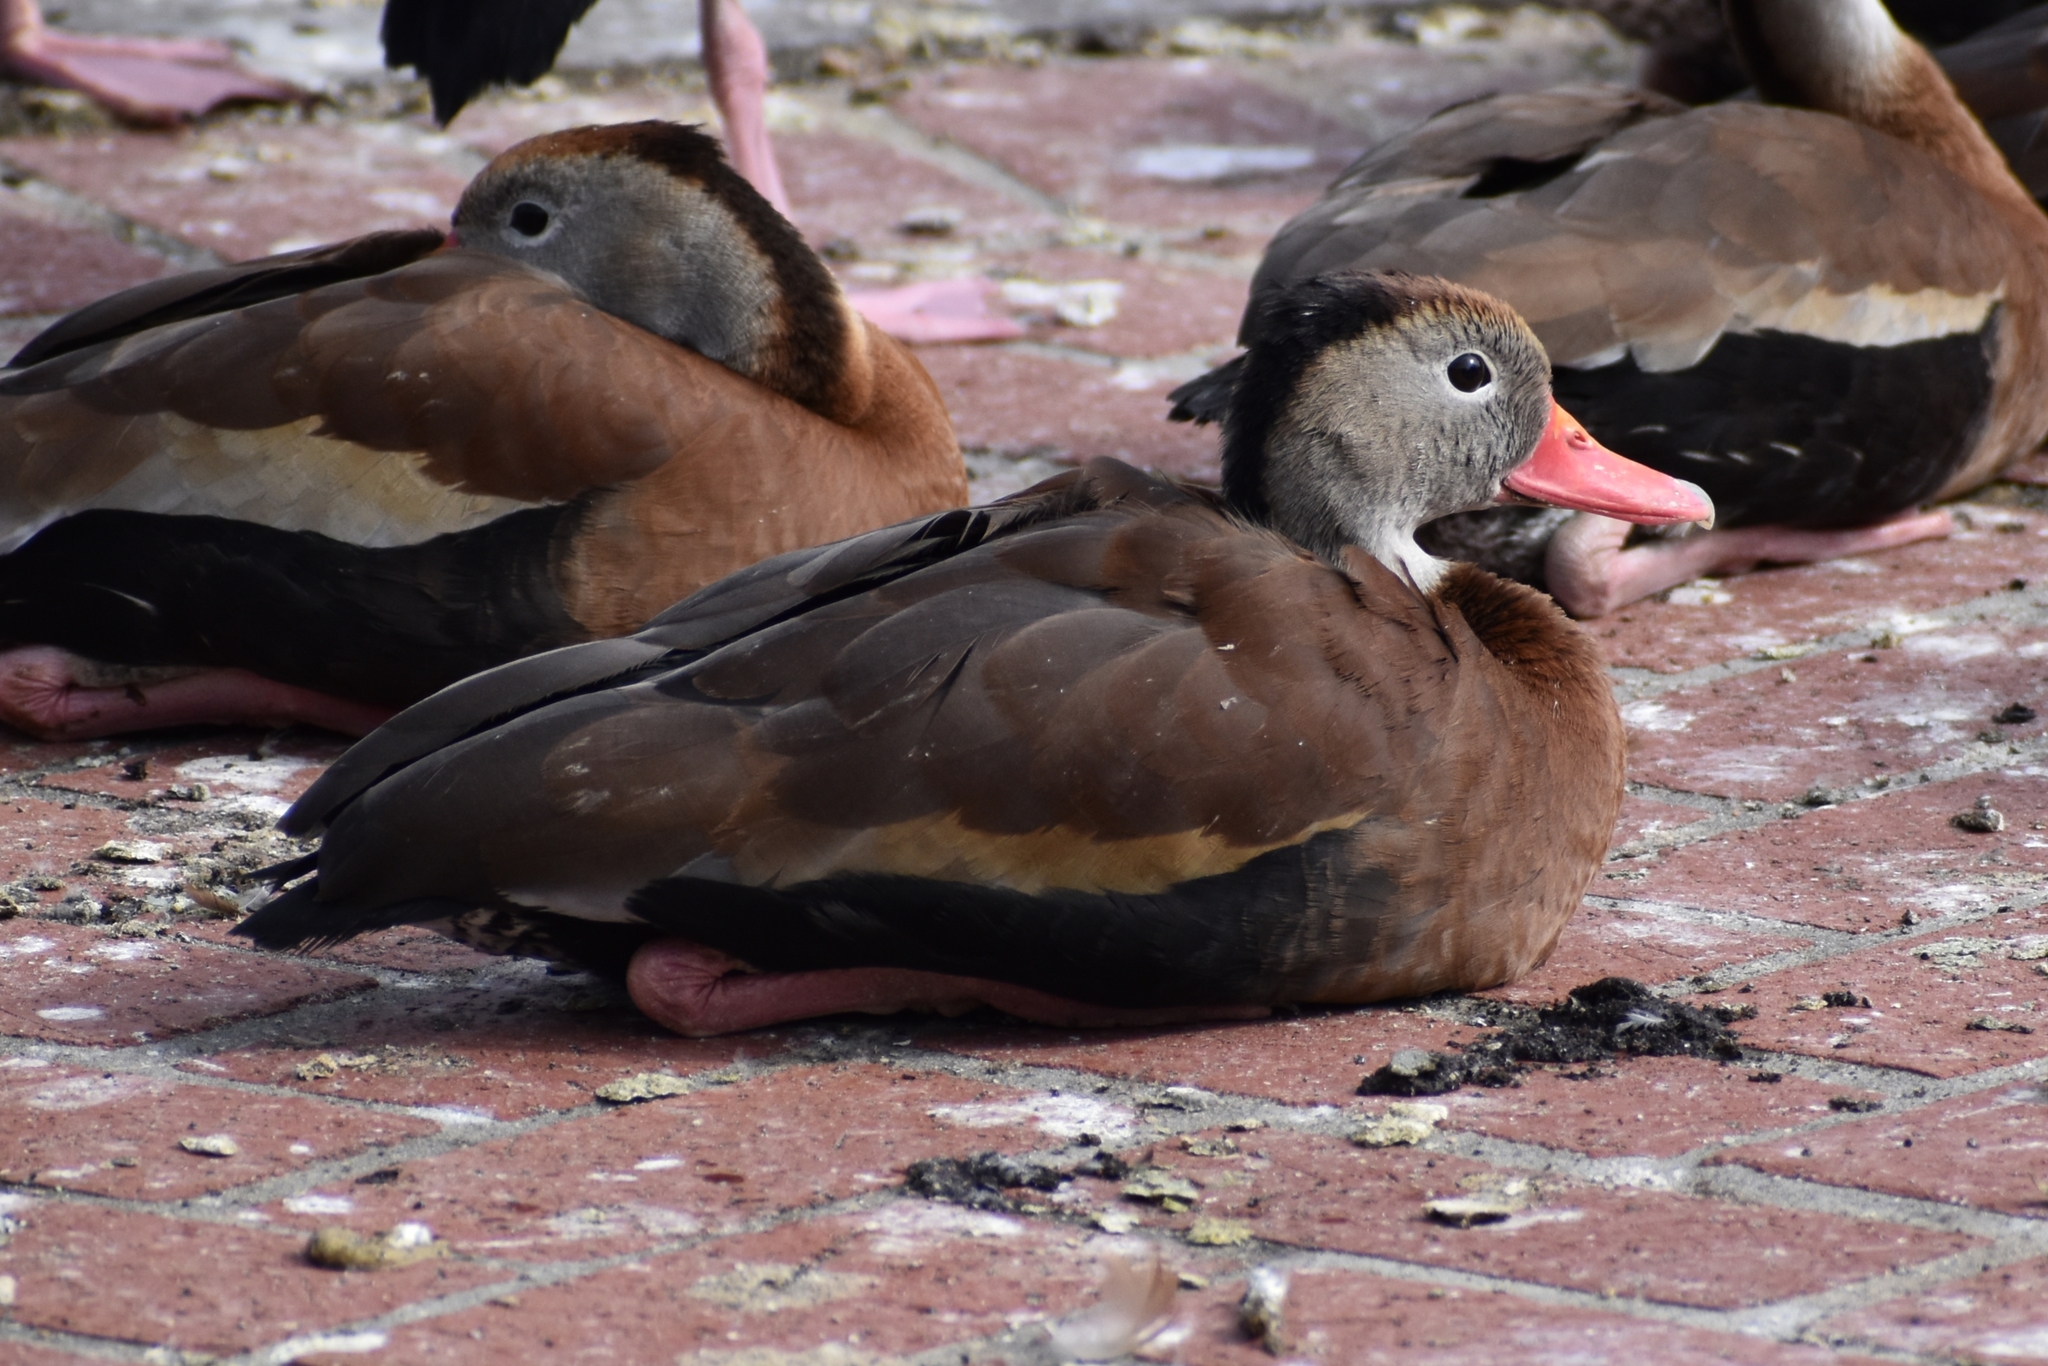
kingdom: Animalia
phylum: Chordata
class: Aves
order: Anseriformes
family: Anatidae
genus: Dendrocygna
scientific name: Dendrocygna autumnalis
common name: Black-bellied whistling duck
